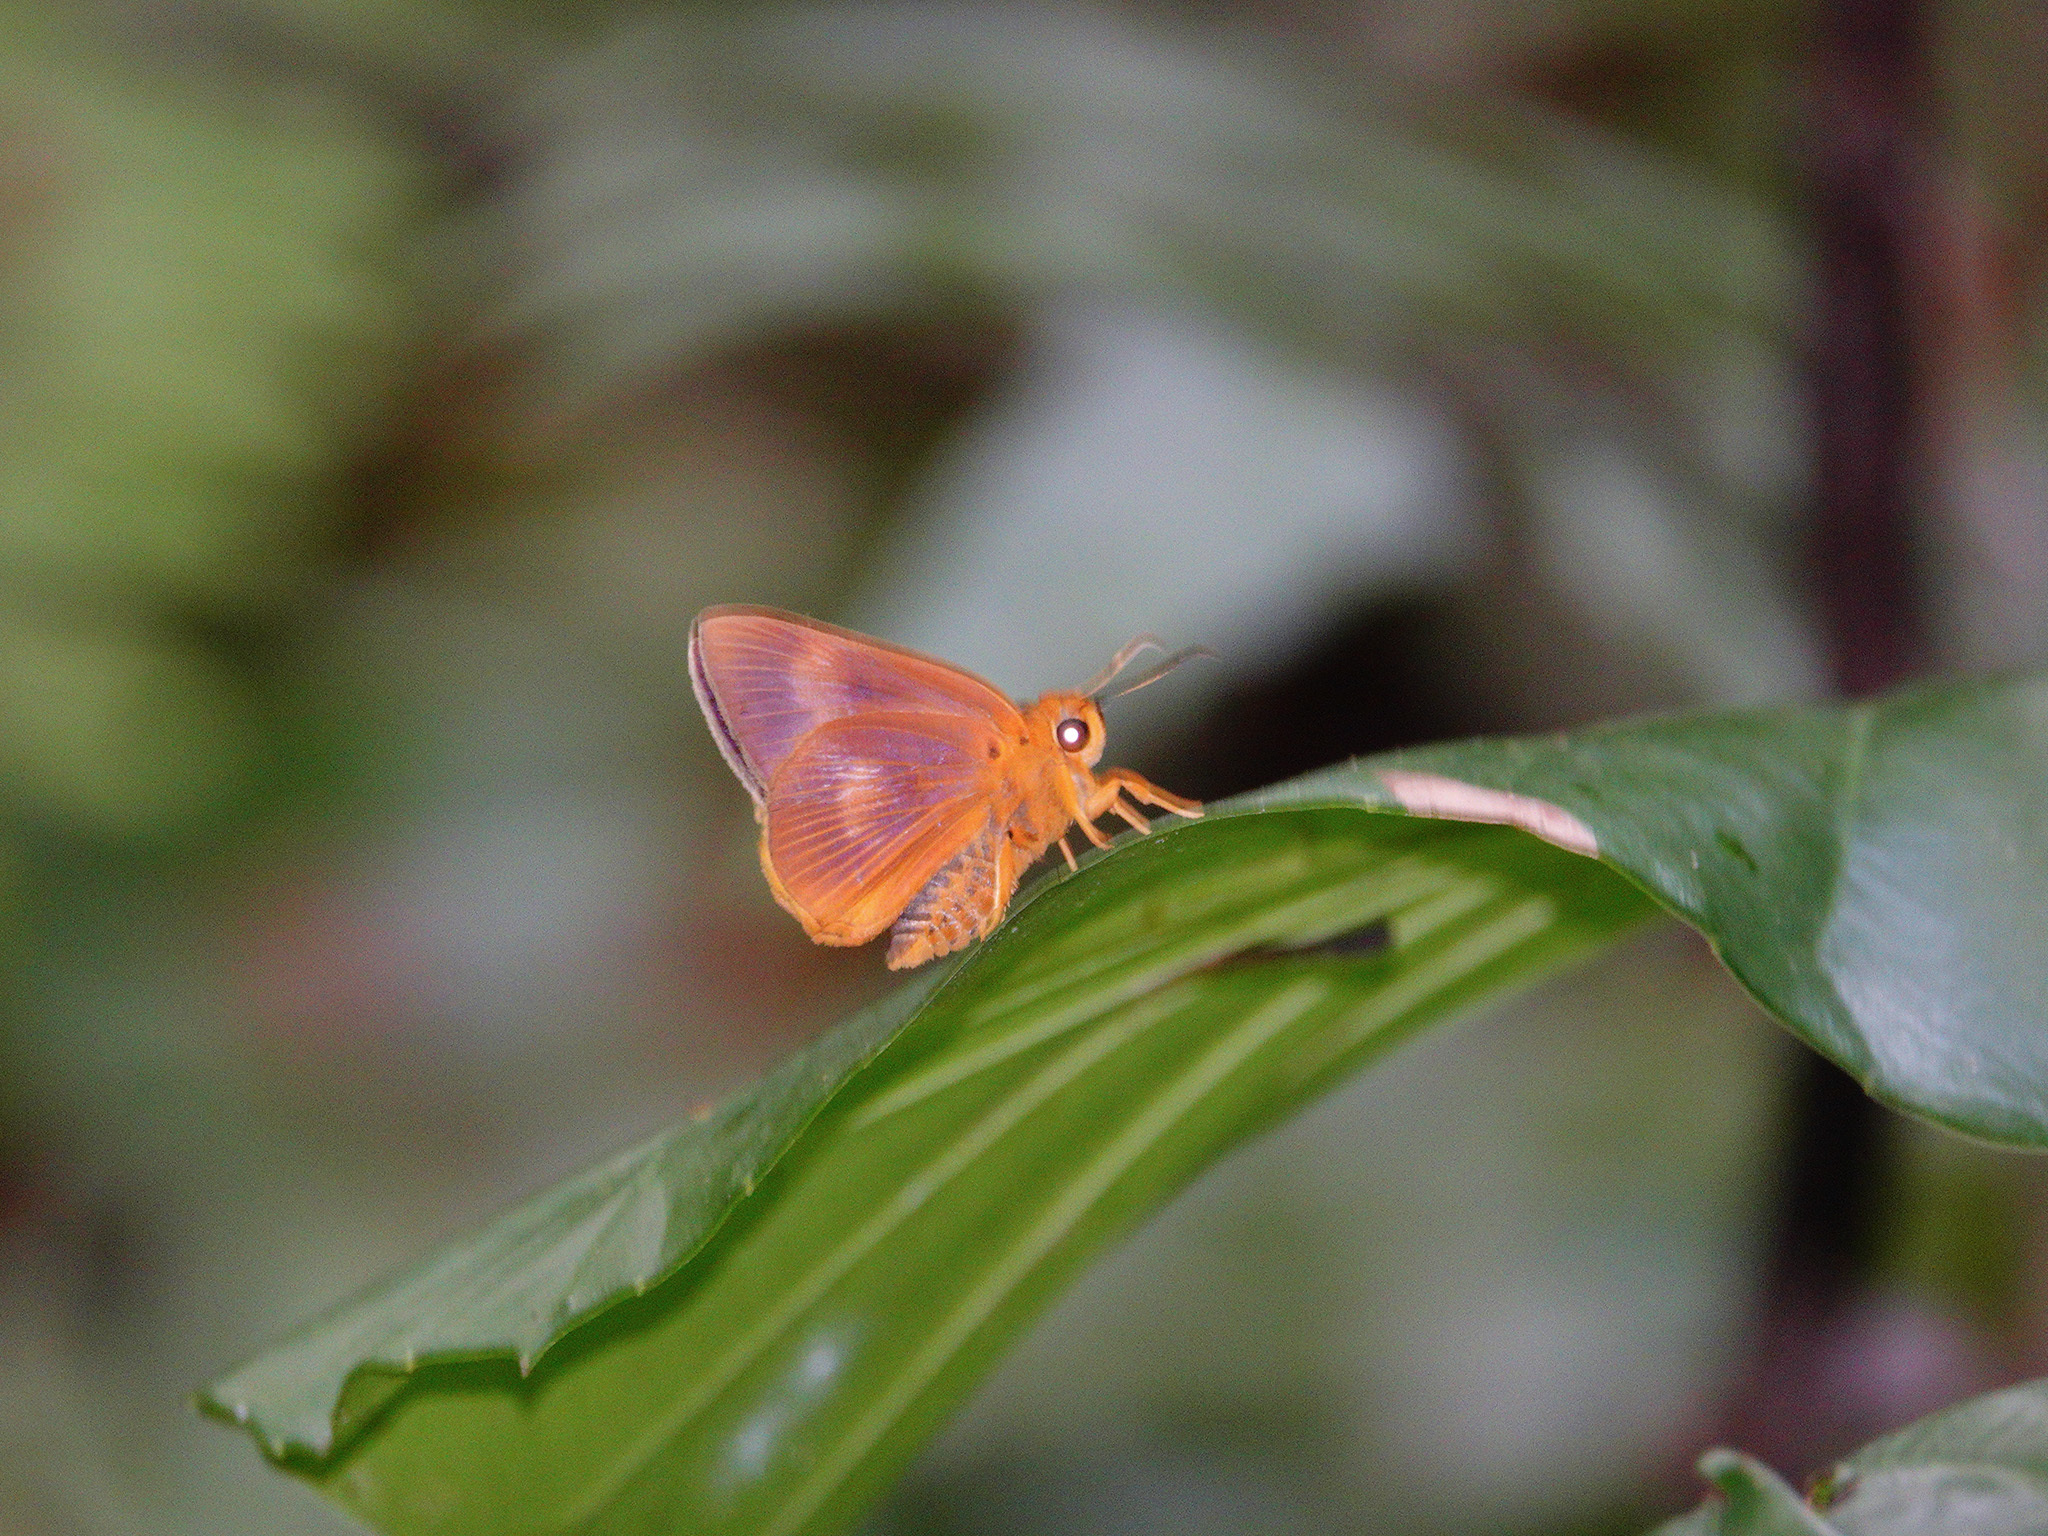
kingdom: Animalia
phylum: Arthropoda
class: Insecta
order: Lepidoptera
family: Hesperiidae
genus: Bibasis
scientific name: Bibasis harisa
